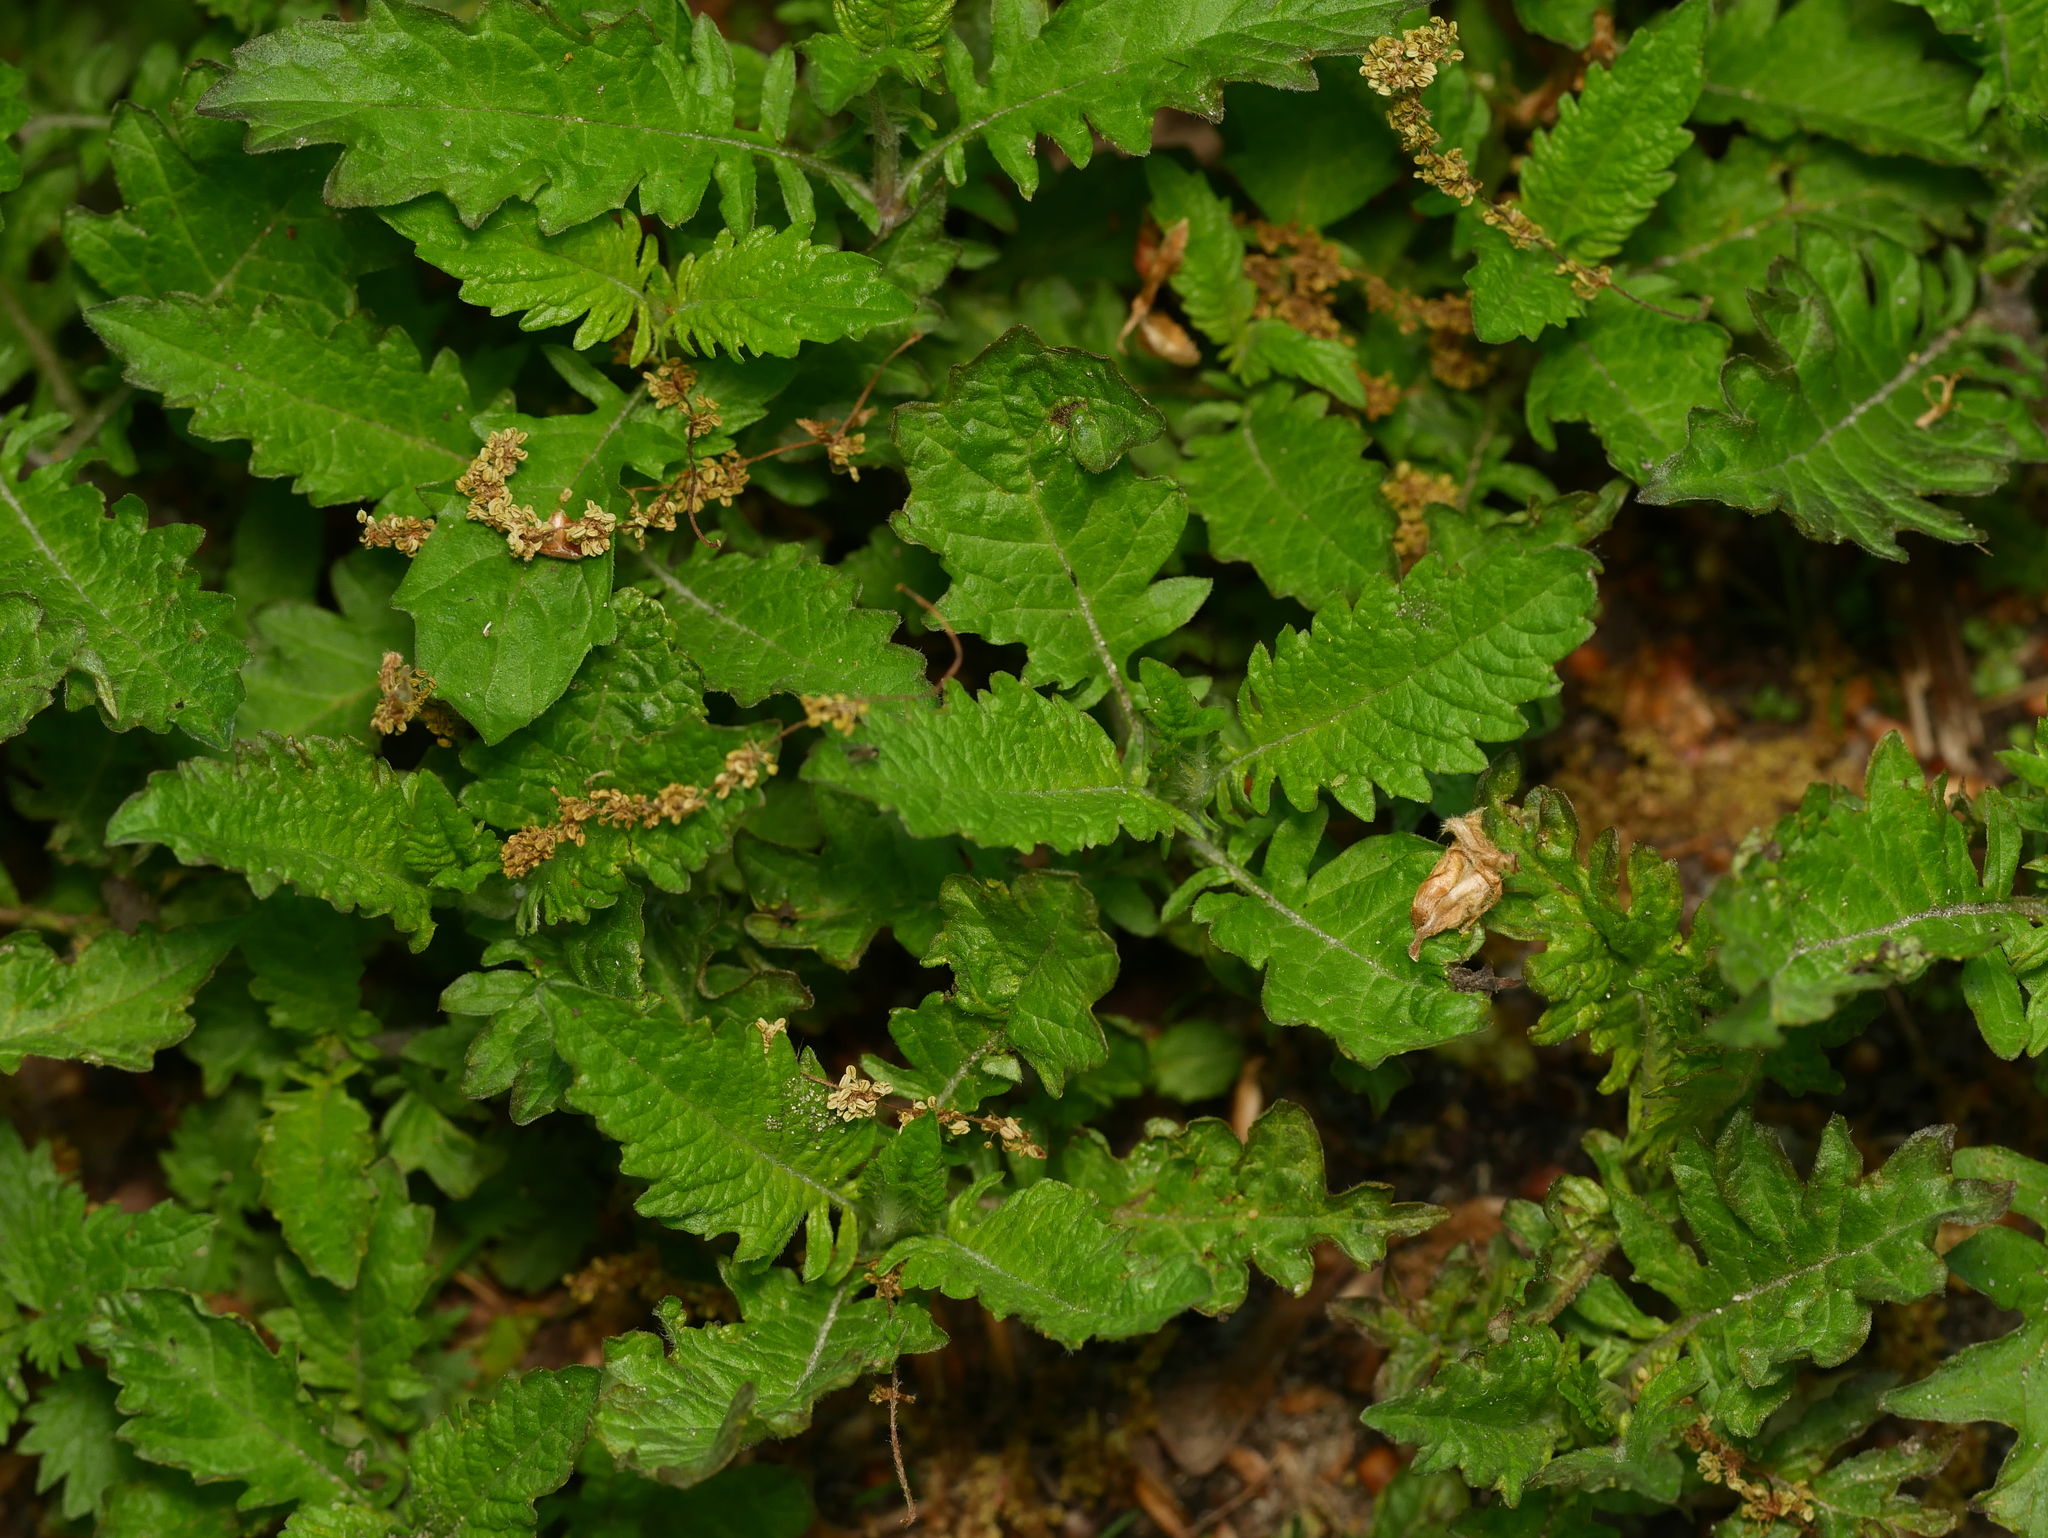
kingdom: Plantae
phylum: Tracheophyta
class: Magnoliopsida
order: Lamiales
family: Lamiaceae
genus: Lycopus
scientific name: Lycopus europaeus
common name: European bugleweed
